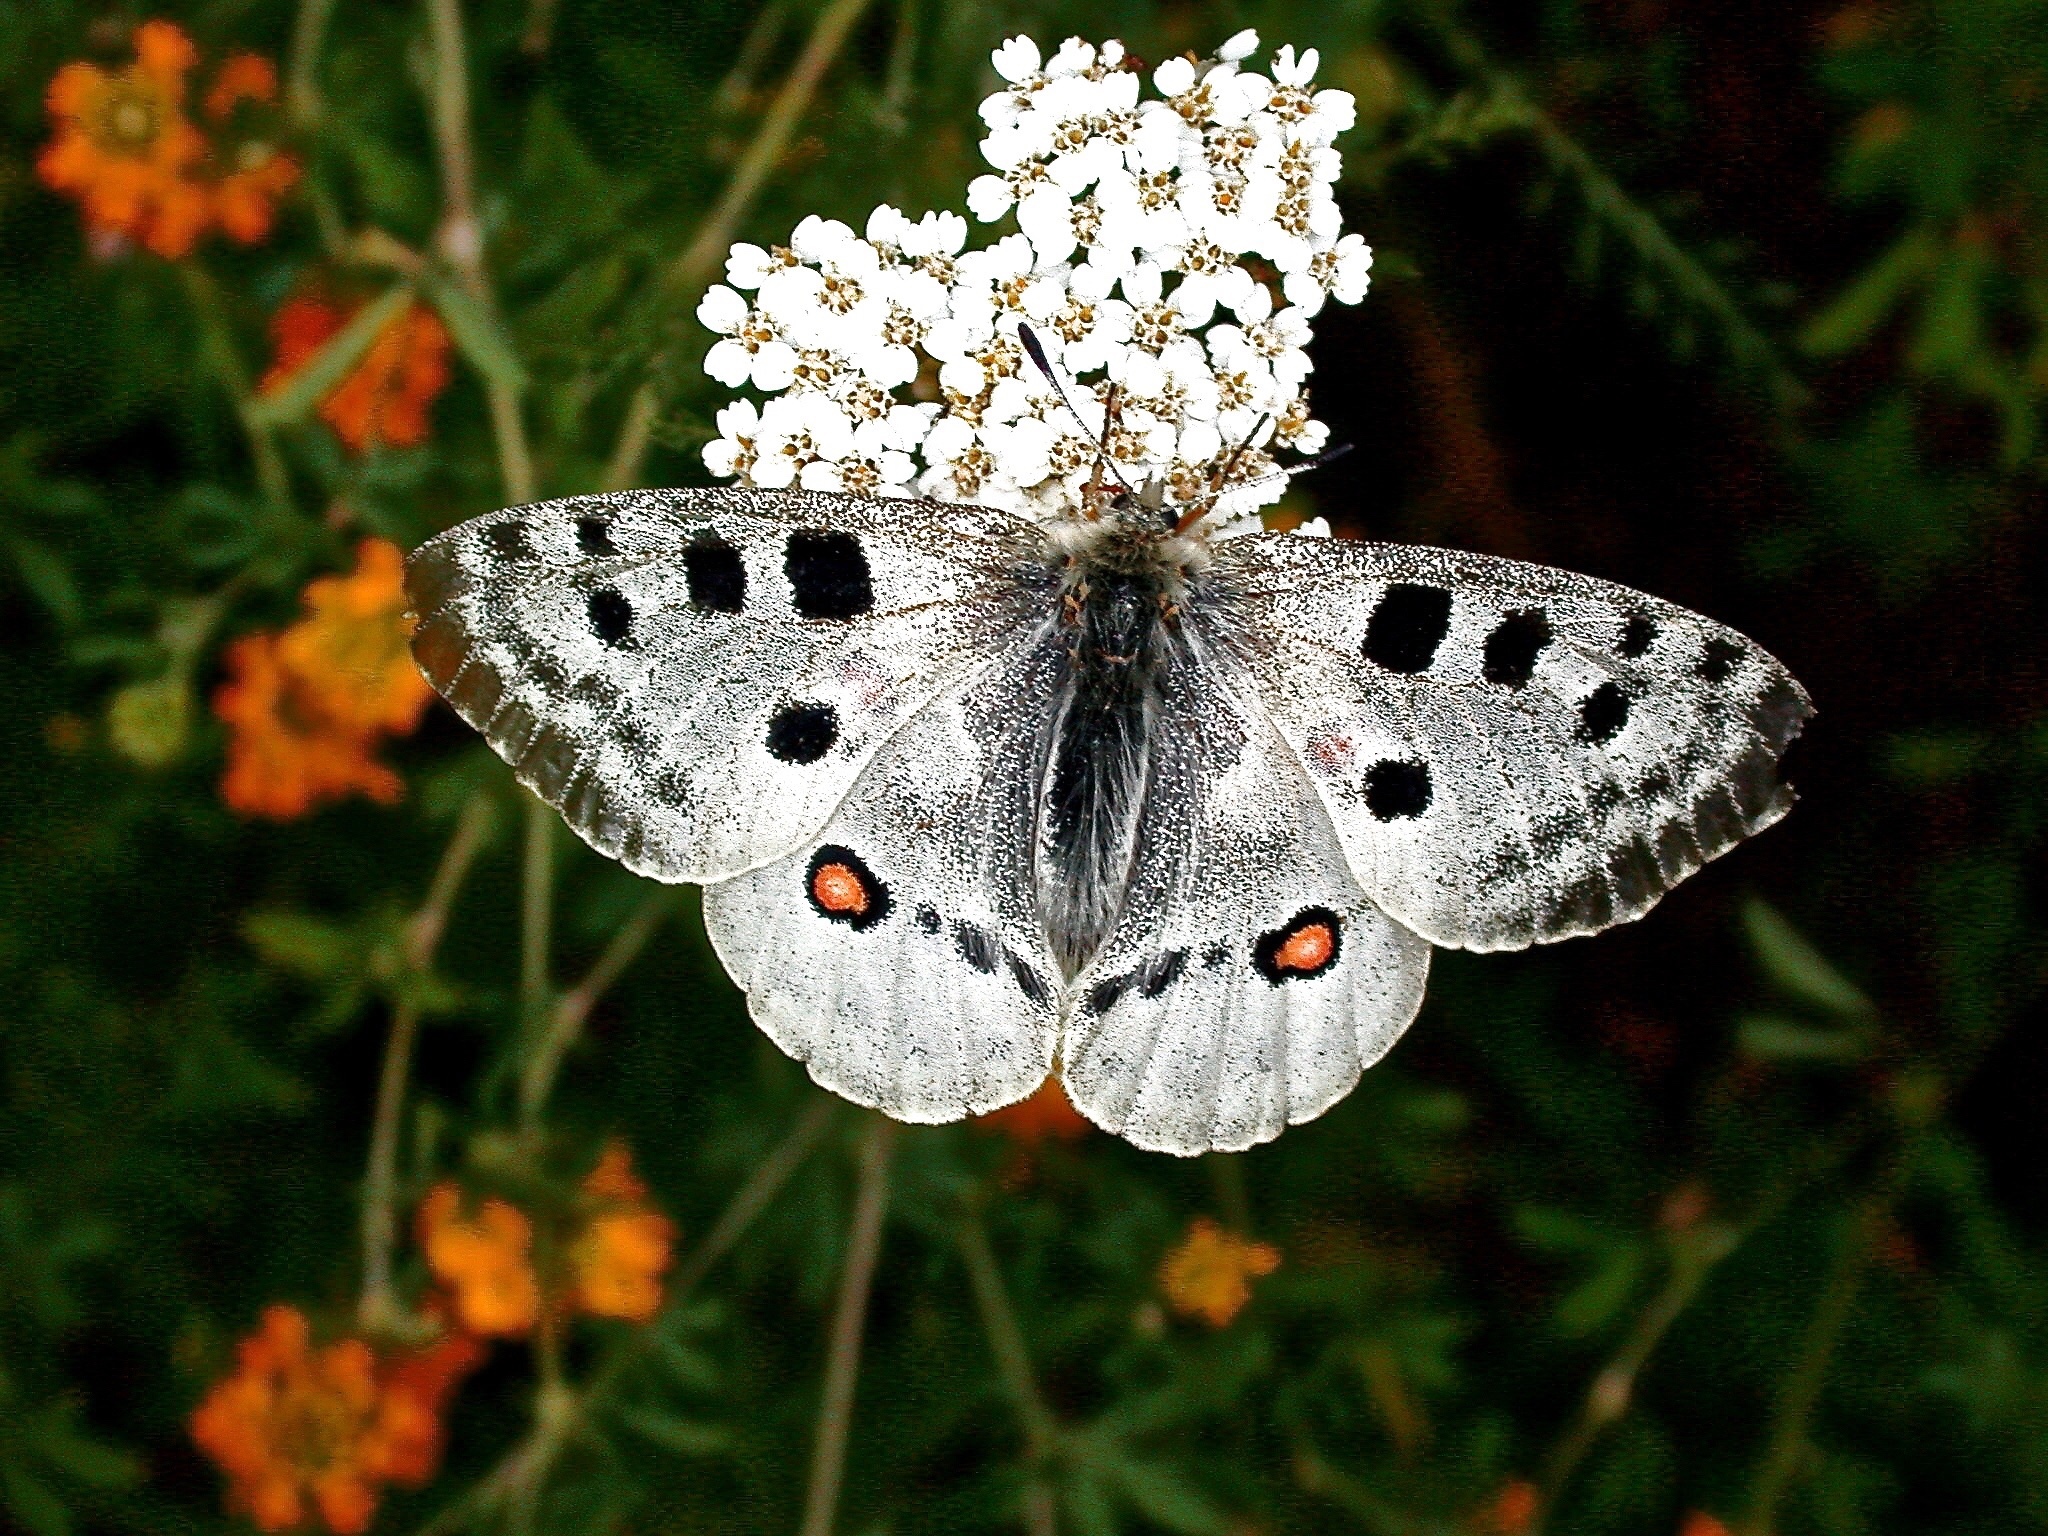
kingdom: Animalia
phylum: Arthropoda
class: Insecta
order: Lepidoptera
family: Papilionidae
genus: Parnassius
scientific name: Parnassius apollo
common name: Apollo
